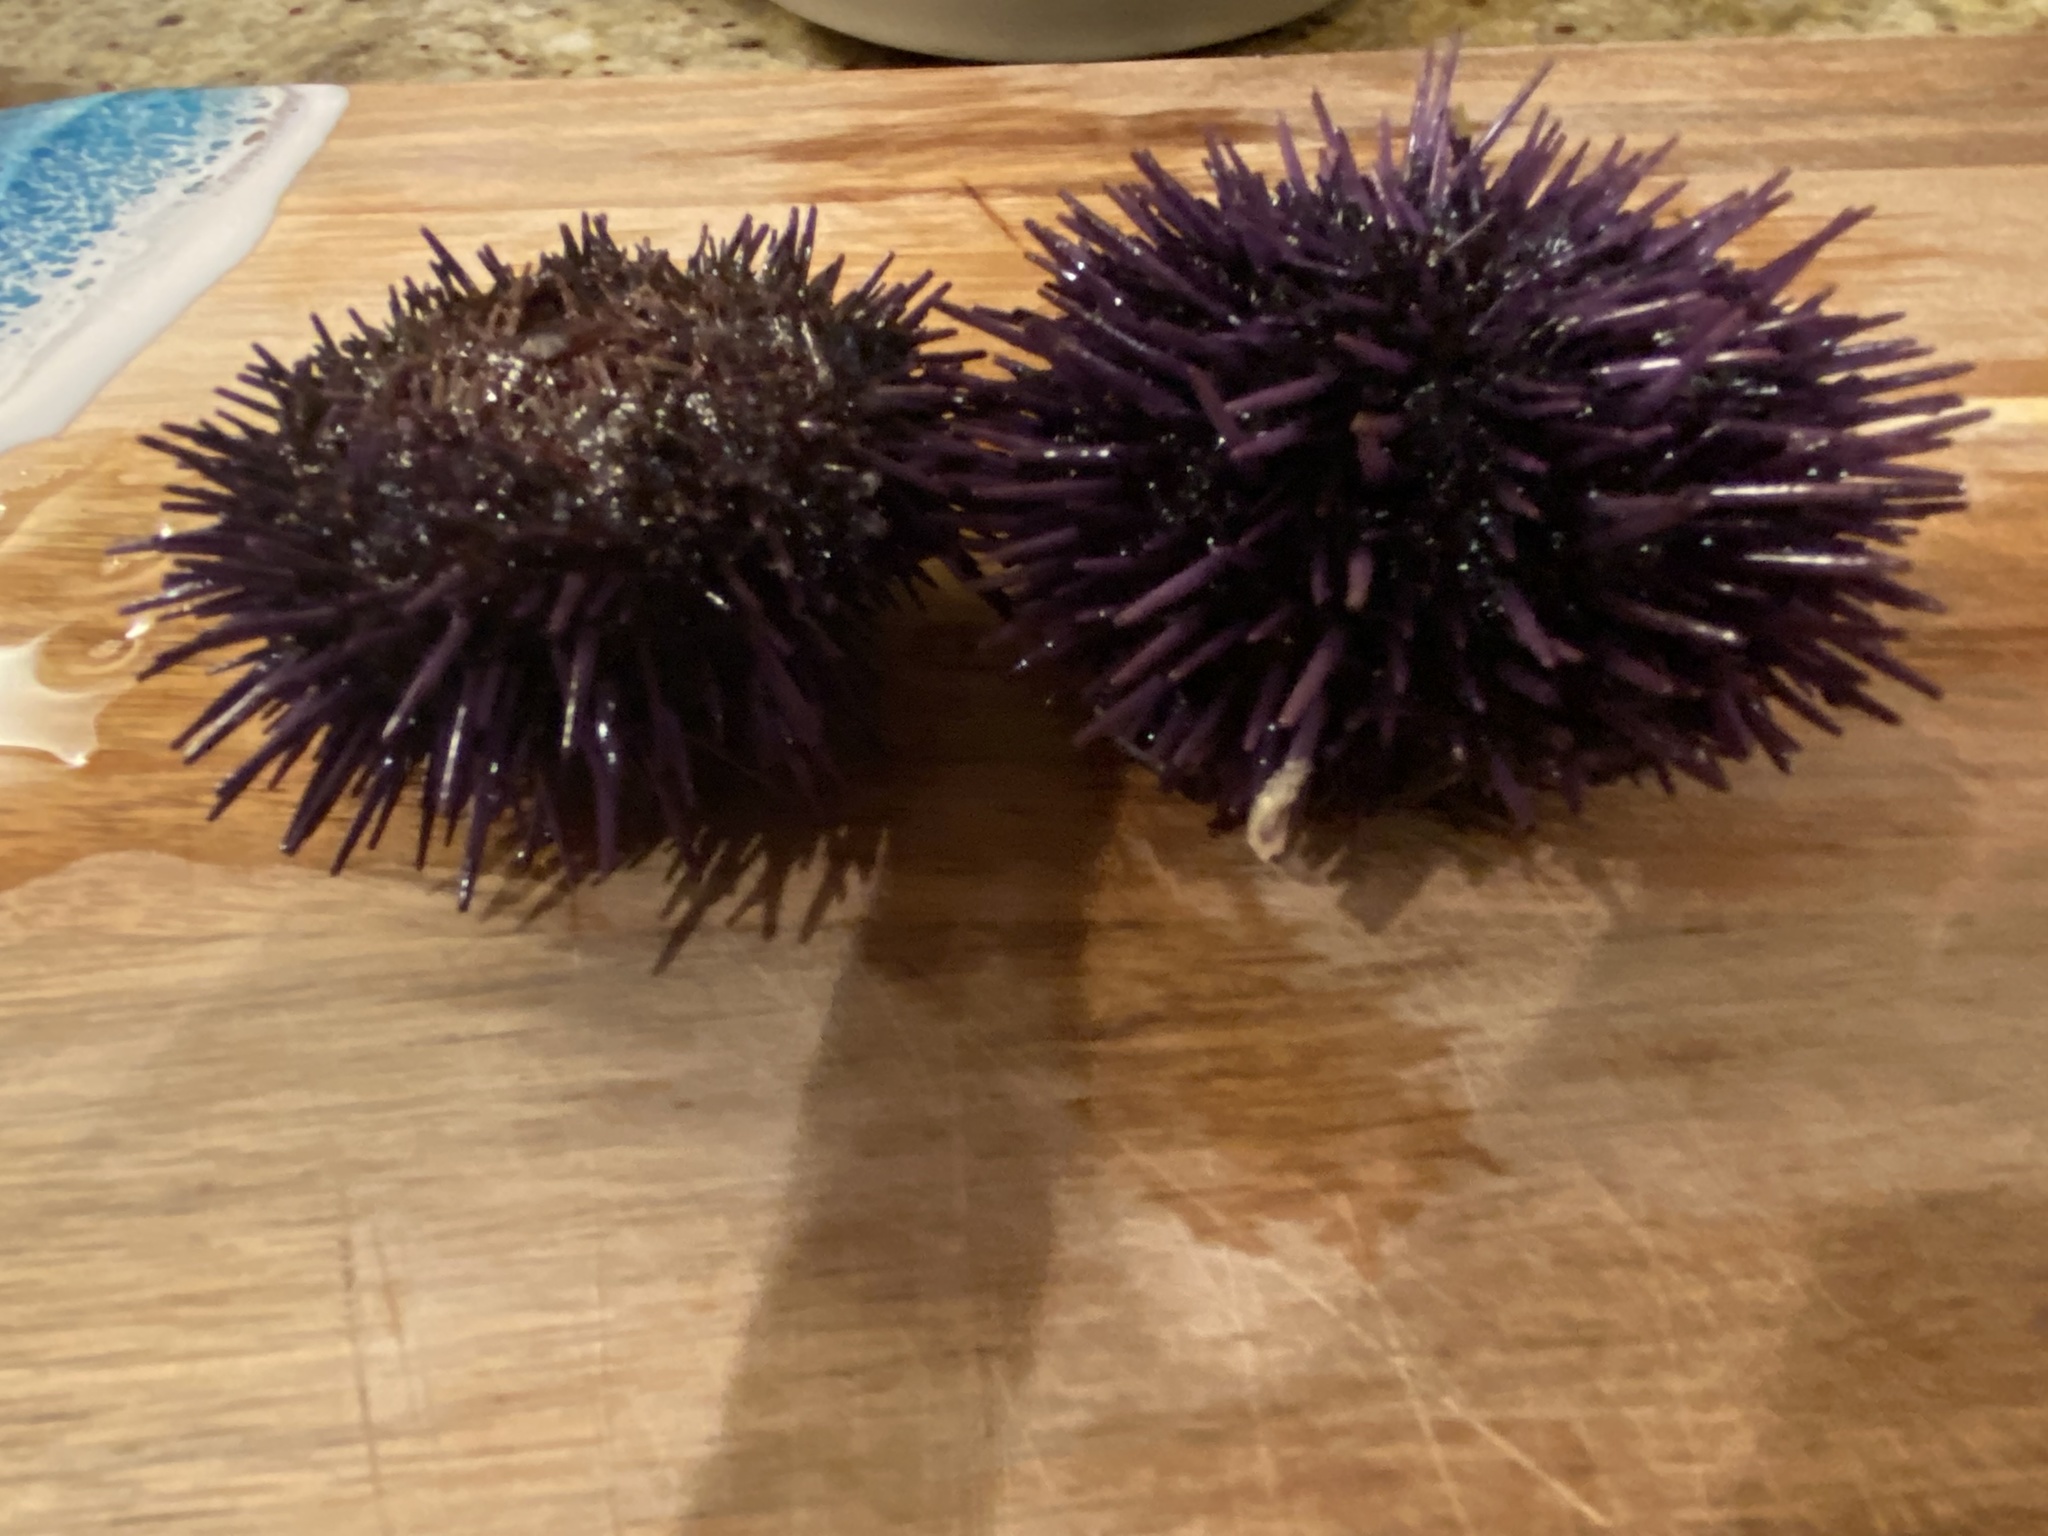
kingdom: Animalia
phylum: Echinodermata
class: Echinoidea
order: Camarodonta
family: Strongylocentrotidae
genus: Strongylocentrotus
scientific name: Strongylocentrotus purpuratus
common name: Purple sea urchin
